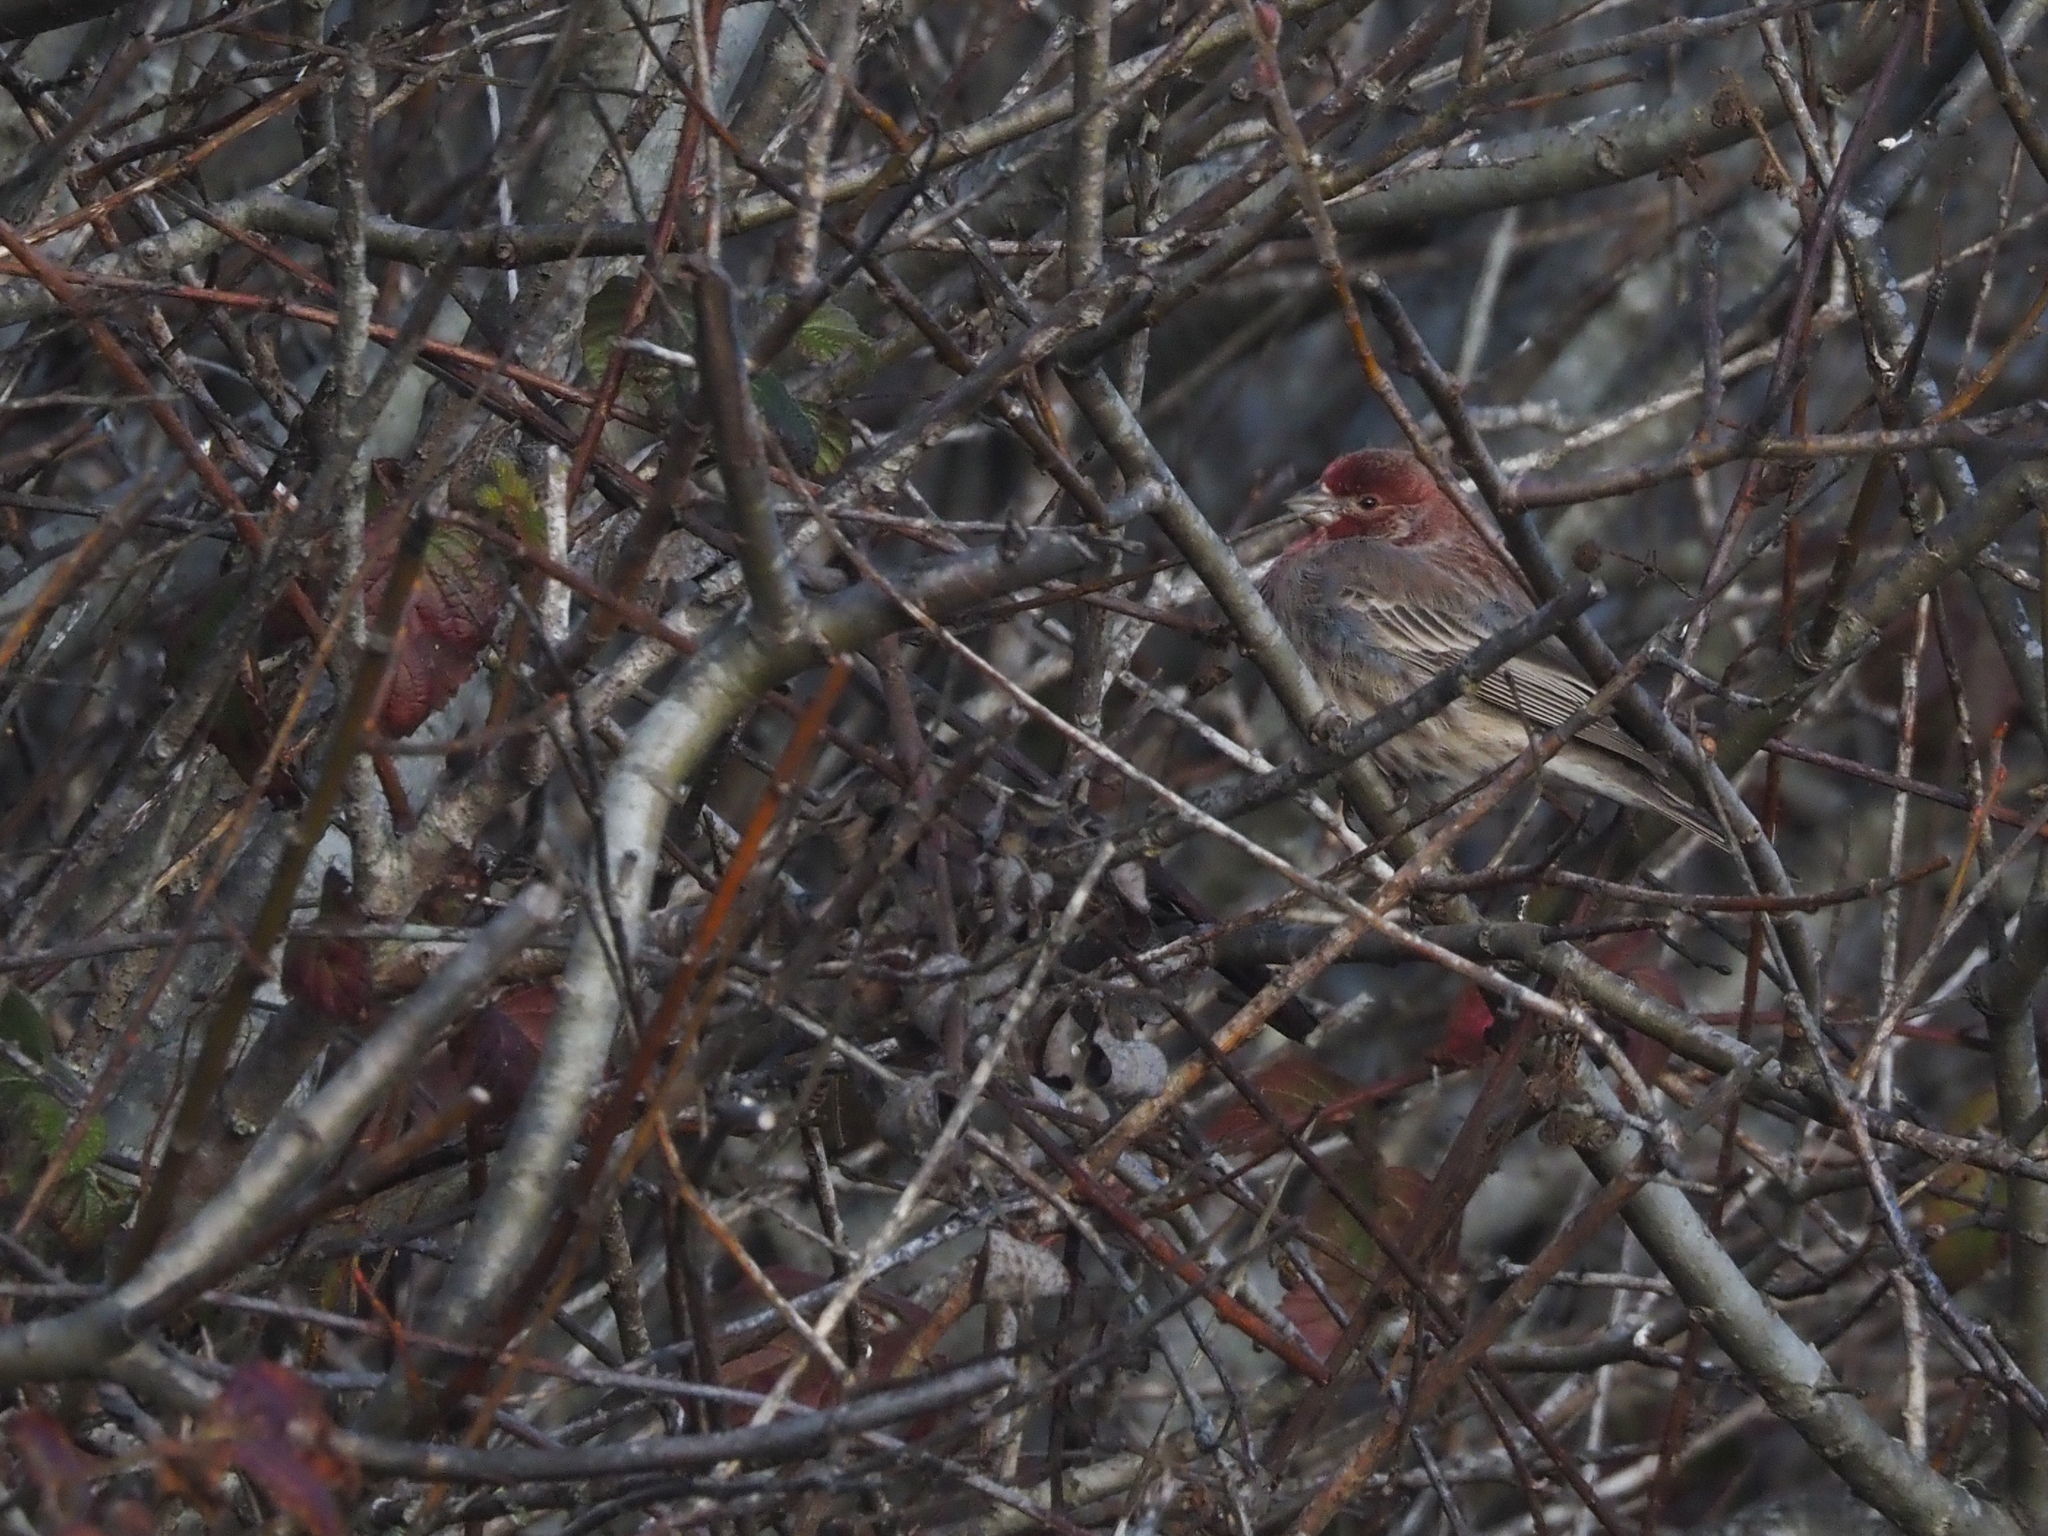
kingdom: Animalia
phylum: Chordata
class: Aves
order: Passeriformes
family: Fringillidae
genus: Haemorhous
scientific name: Haemorhous mexicanus
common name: House finch
